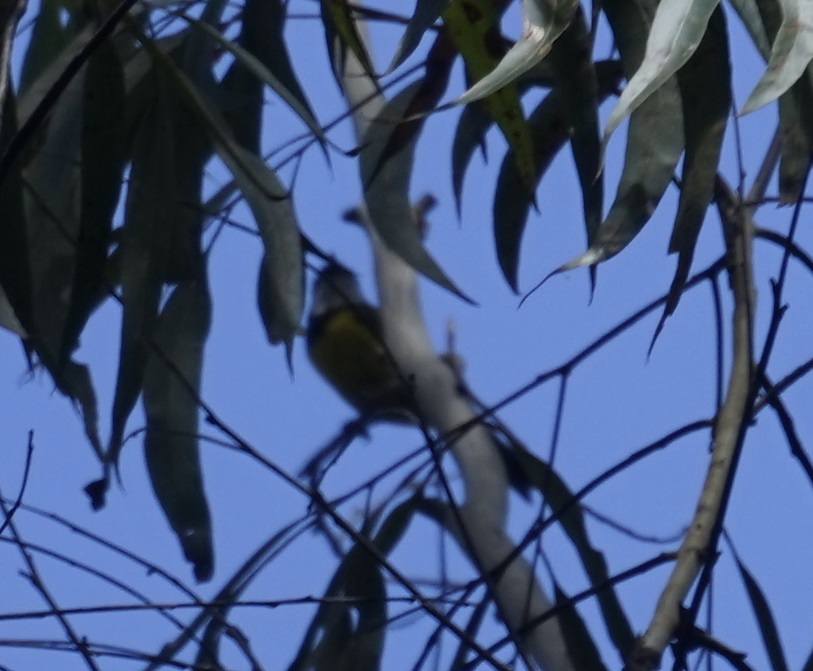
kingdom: Animalia
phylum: Chordata
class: Aves
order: Passeriformes
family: Pachycephalidae
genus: Pachycephala
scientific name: Pachycephala pectoralis
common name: Australian golden whistler
